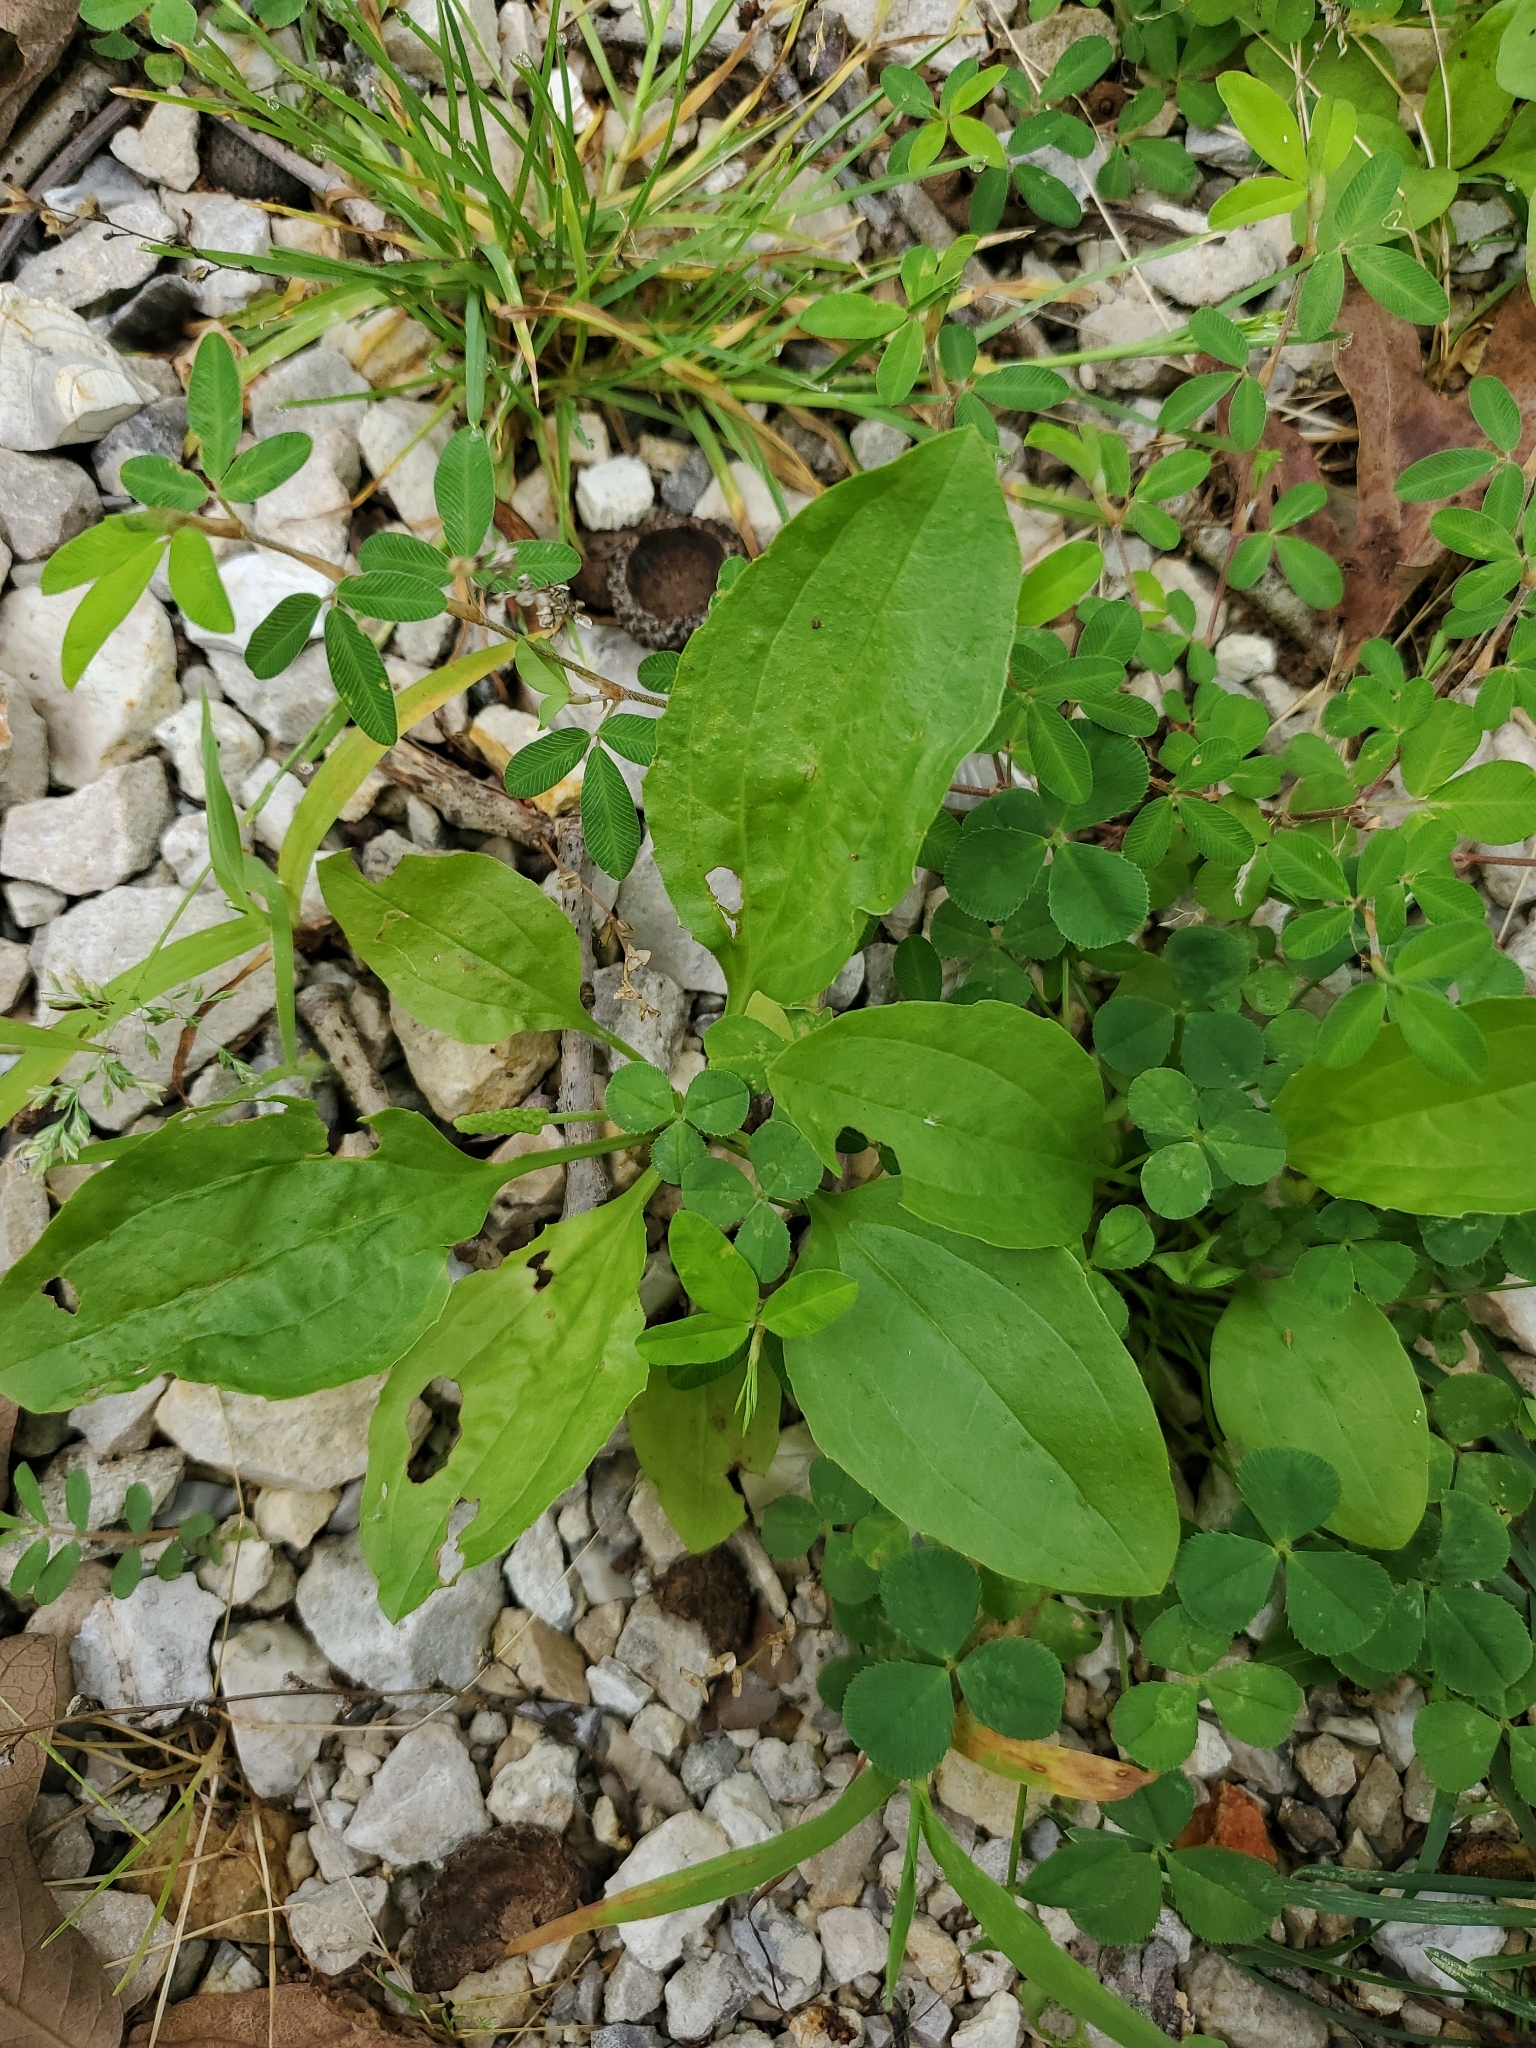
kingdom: Plantae
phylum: Tracheophyta
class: Magnoliopsida
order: Lamiales
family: Plantaginaceae
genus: Plantago
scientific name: Plantago major
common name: Common plantain
